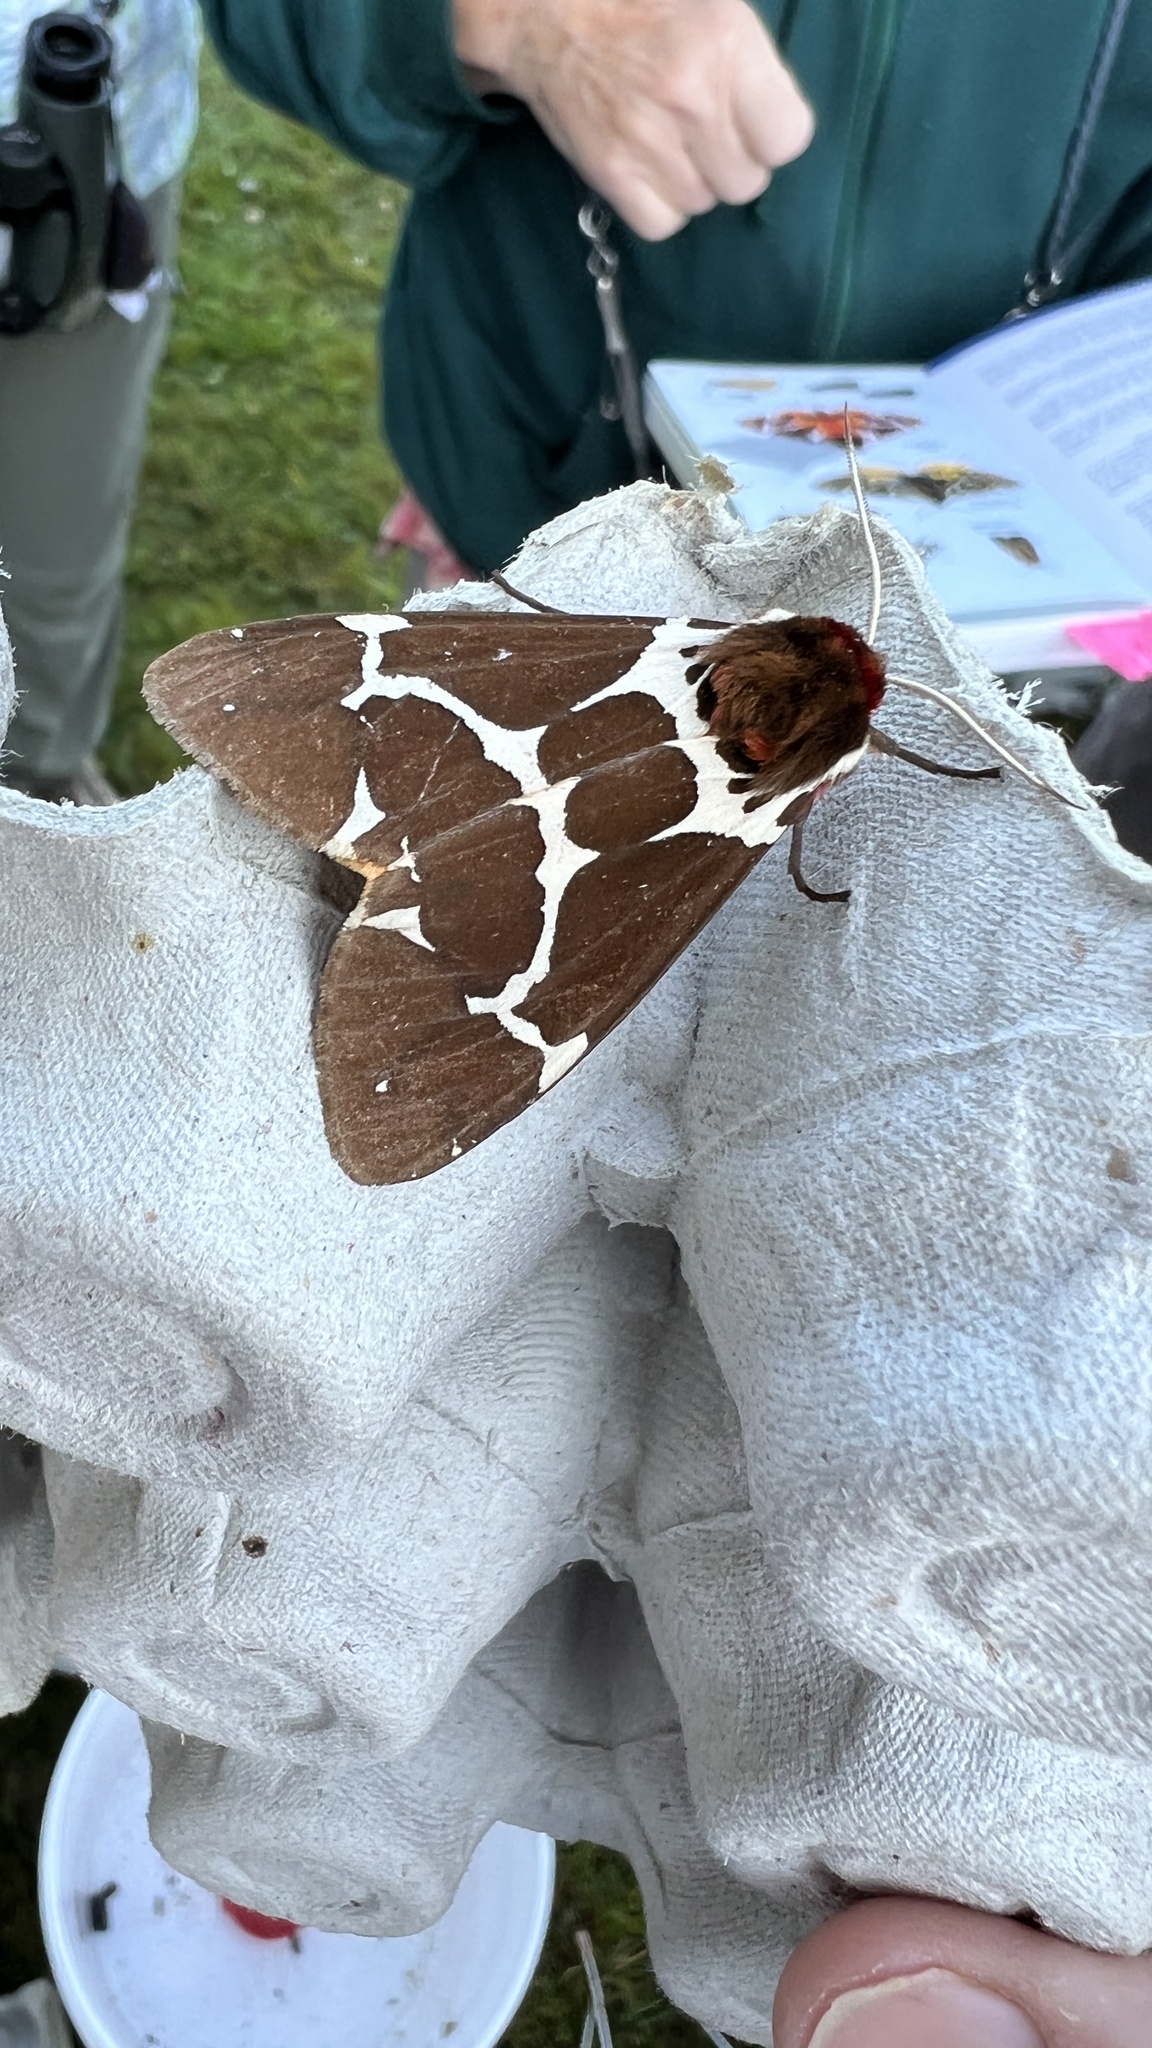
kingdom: Animalia
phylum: Arthropoda
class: Insecta
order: Lepidoptera
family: Erebidae
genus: Arctia
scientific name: Arctia caja
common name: Garden tiger
